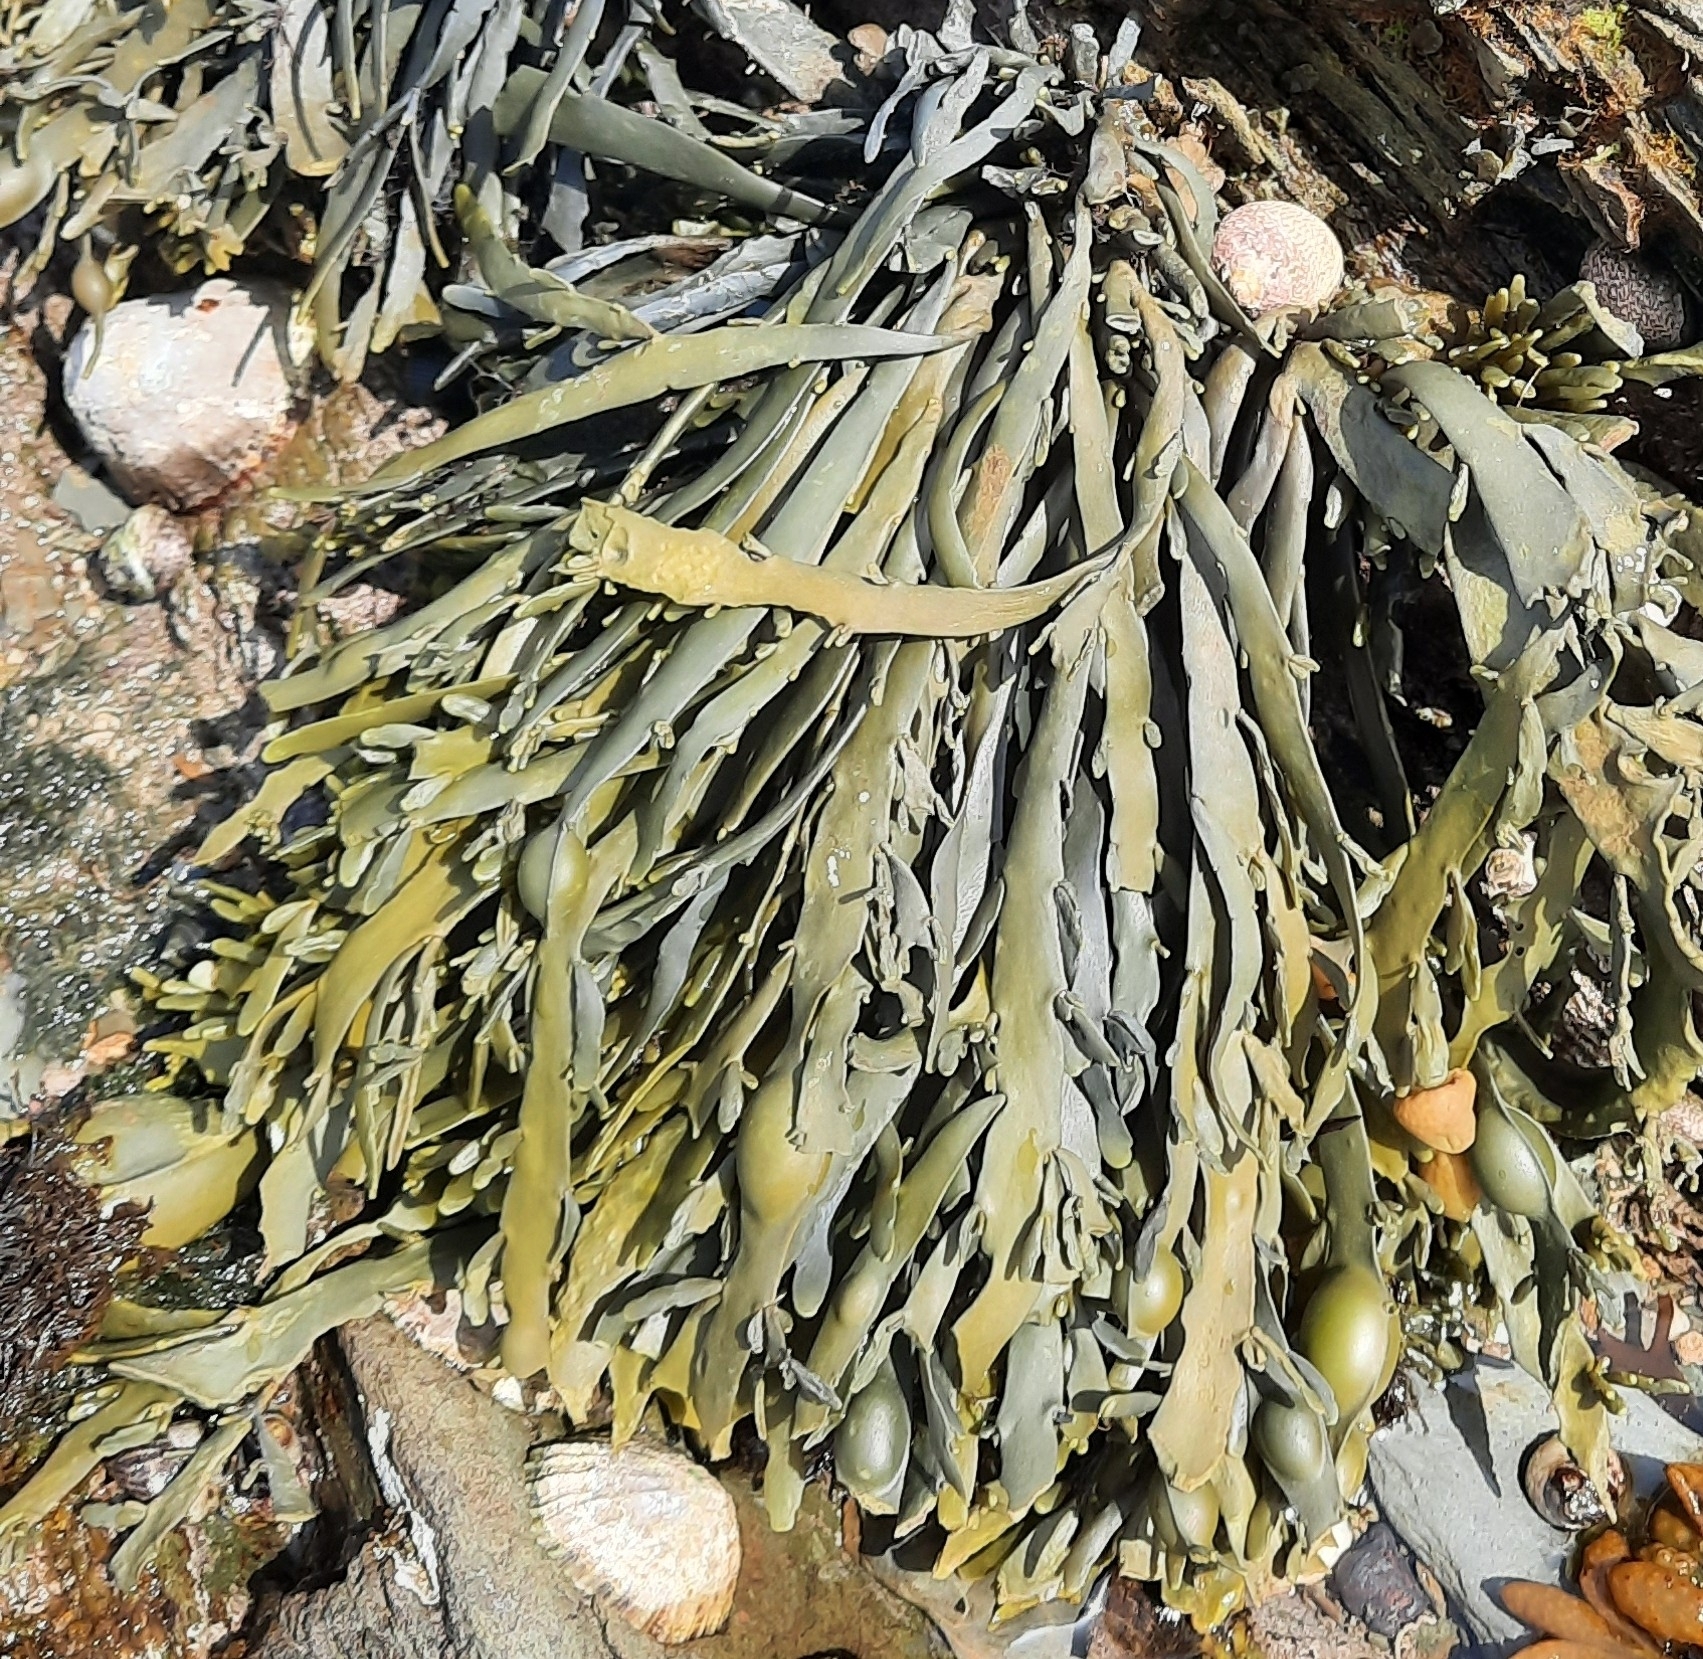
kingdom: Chromista
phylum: Ochrophyta
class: Phaeophyceae
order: Fucales
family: Fucaceae
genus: Ascophyllum
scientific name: Ascophyllum nodosum
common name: Knotted wrack
